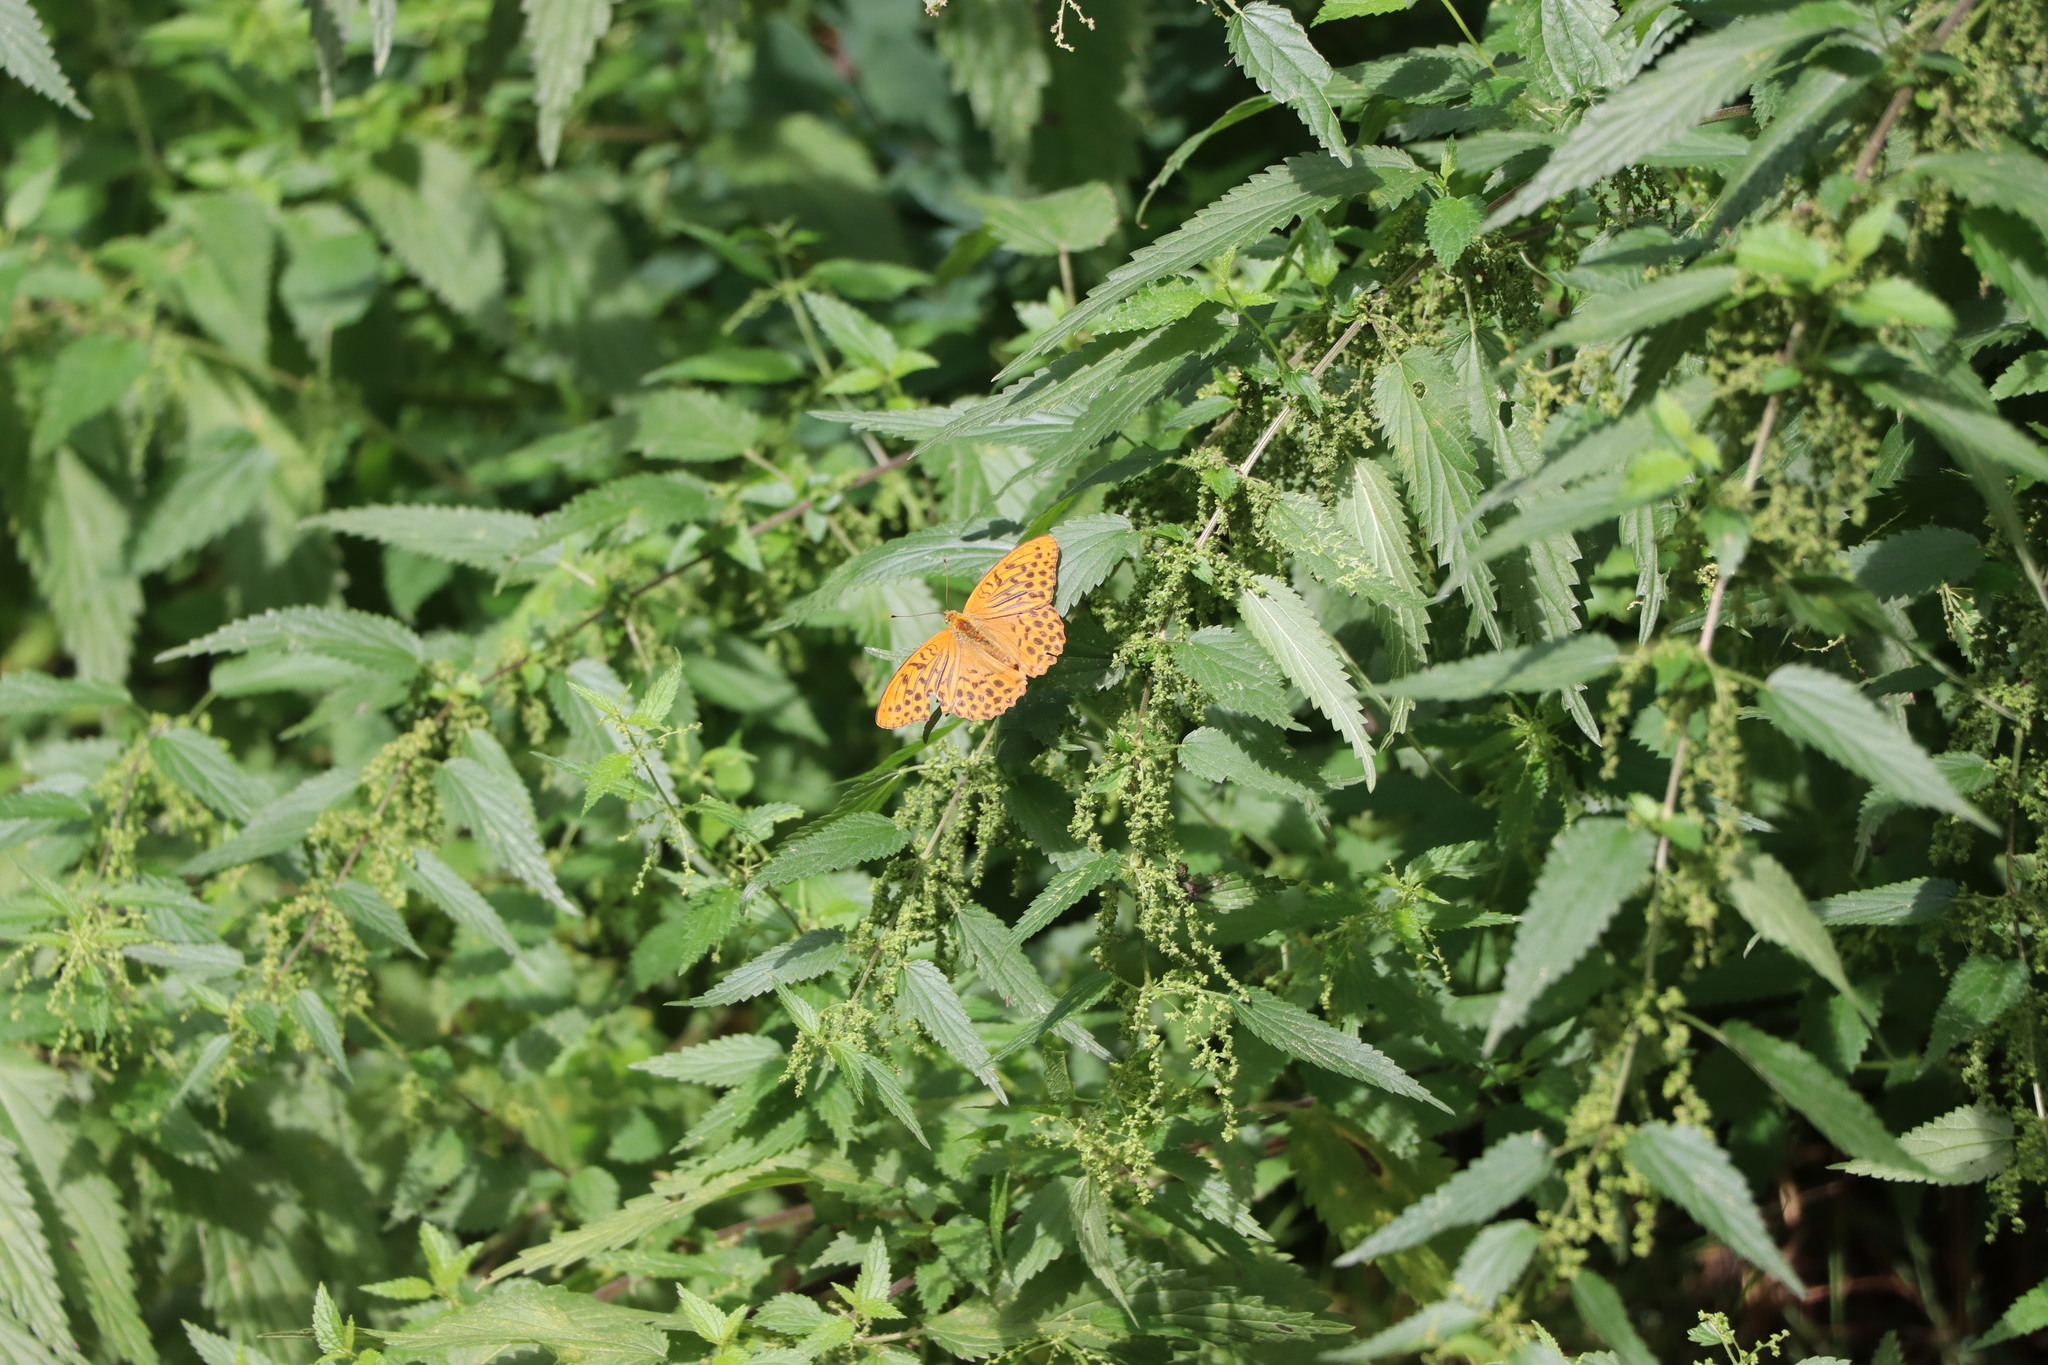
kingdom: Animalia
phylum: Arthropoda
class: Insecta
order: Lepidoptera
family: Nymphalidae
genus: Argynnis
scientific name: Argynnis paphia
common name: Silver-washed fritillary
